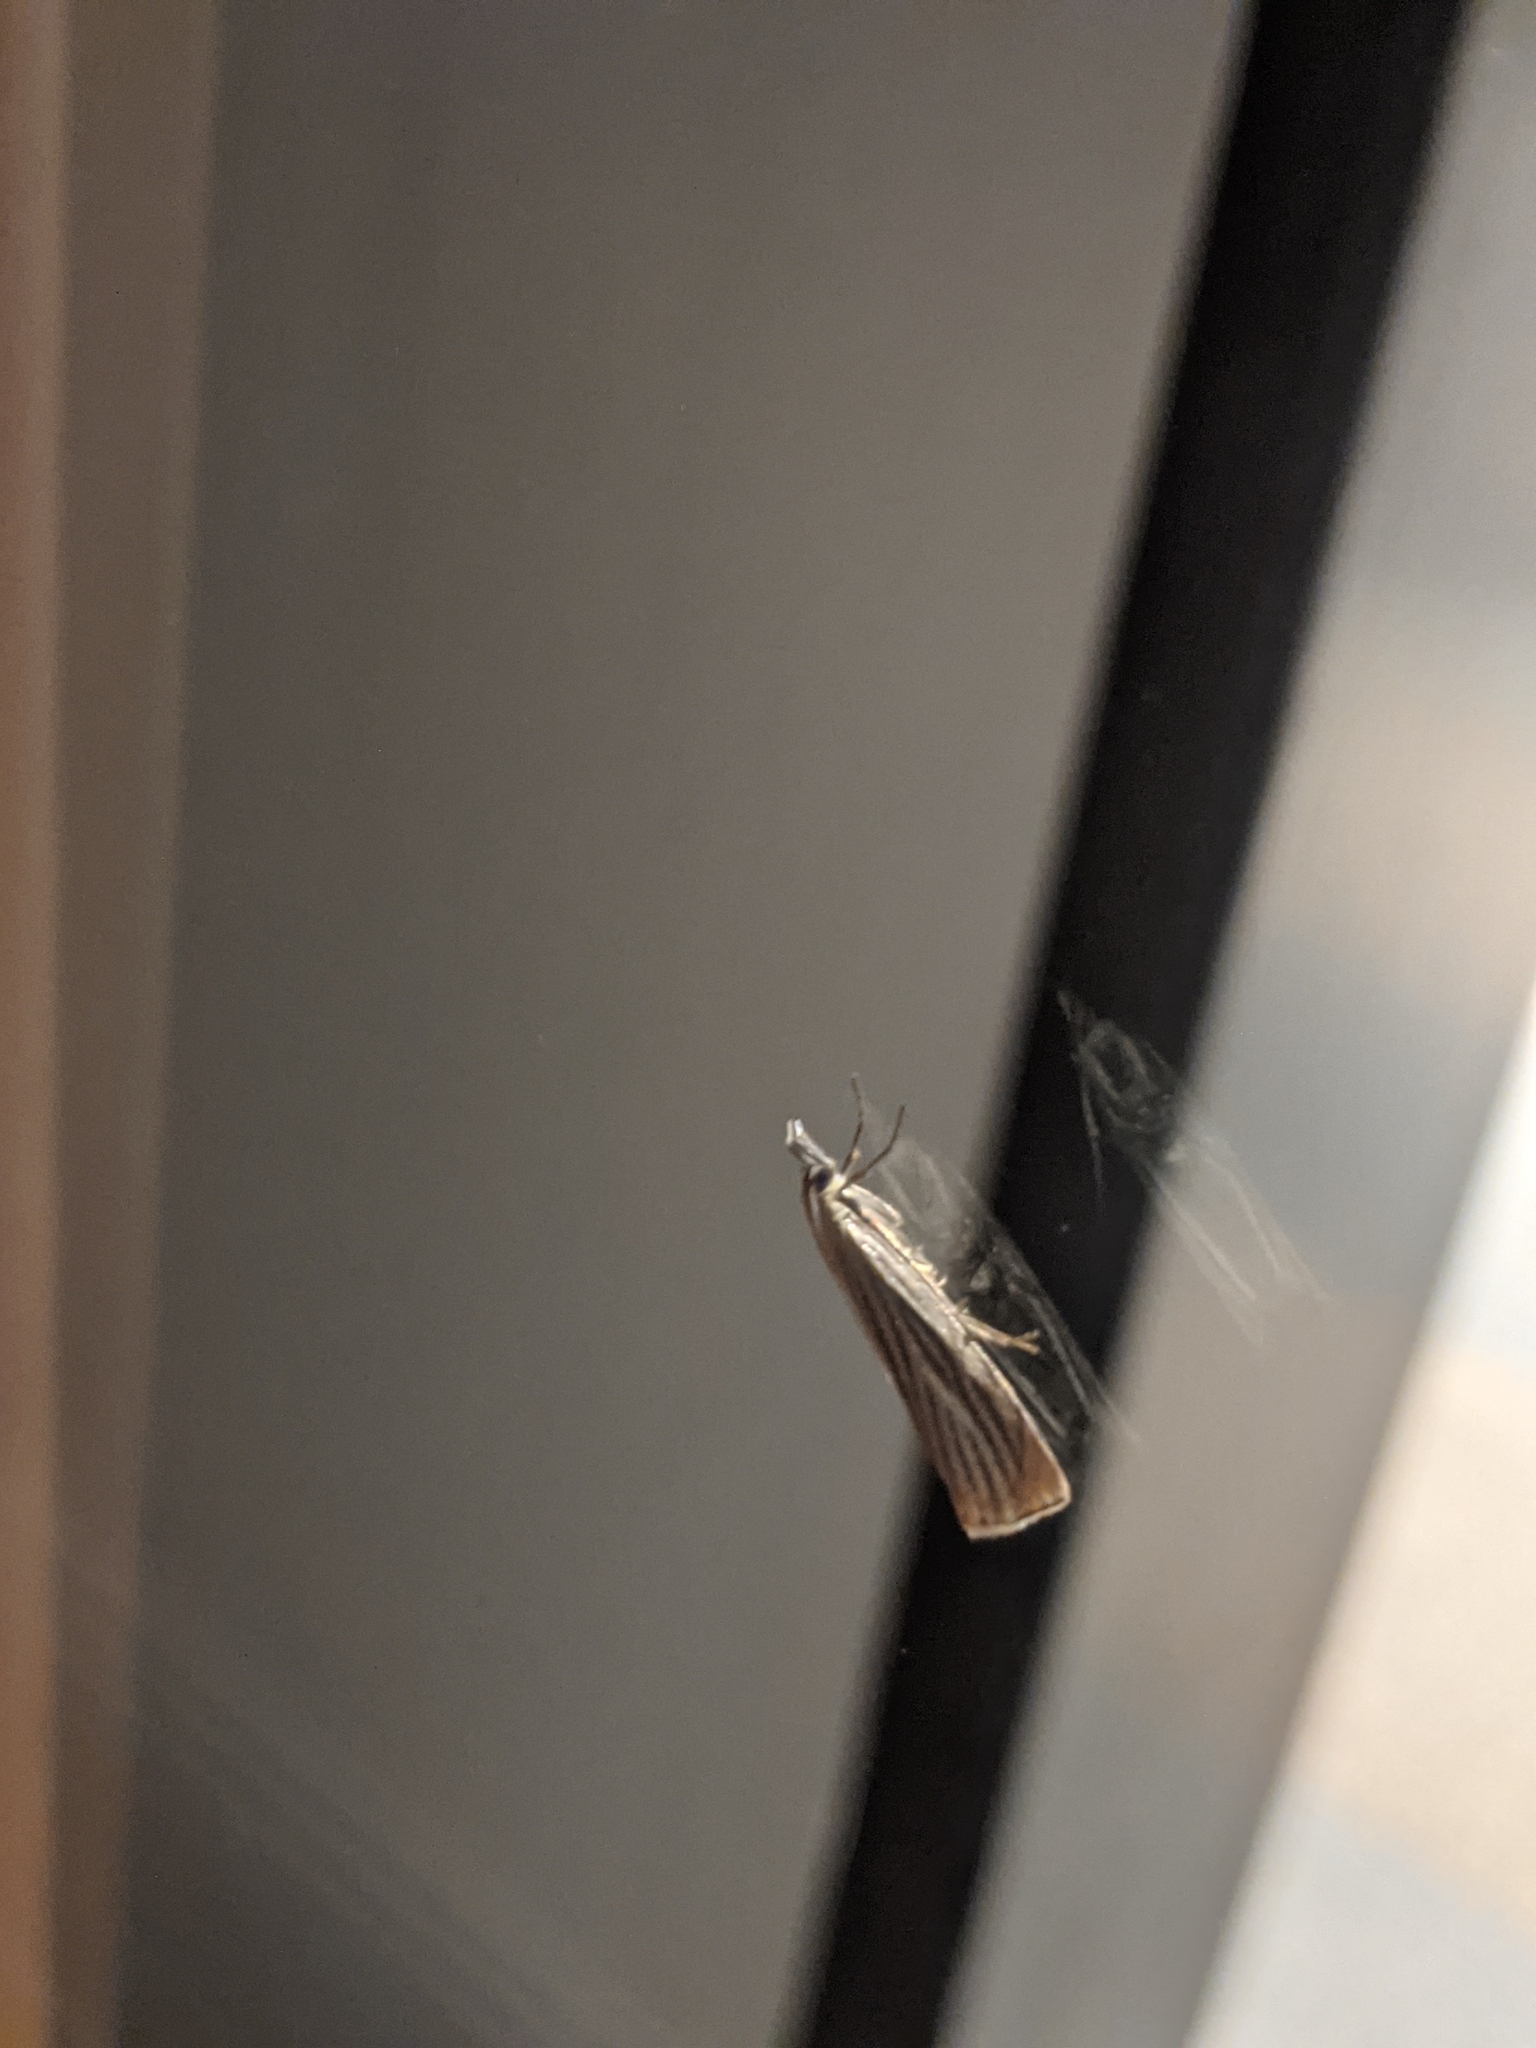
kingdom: Animalia
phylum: Arthropoda
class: Insecta
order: Lepidoptera
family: Crambidae
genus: Chrysoteuchia
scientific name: Chrysoteuchia culmella
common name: Garden grass-veneer
